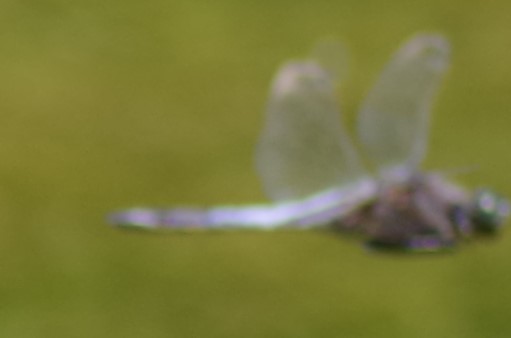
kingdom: Animalia
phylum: Arthropoda
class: Insecta
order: Odonata
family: Libellulidae
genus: Orthetrum
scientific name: Orthetrum cancellatum
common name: Black-tailed skimmer
